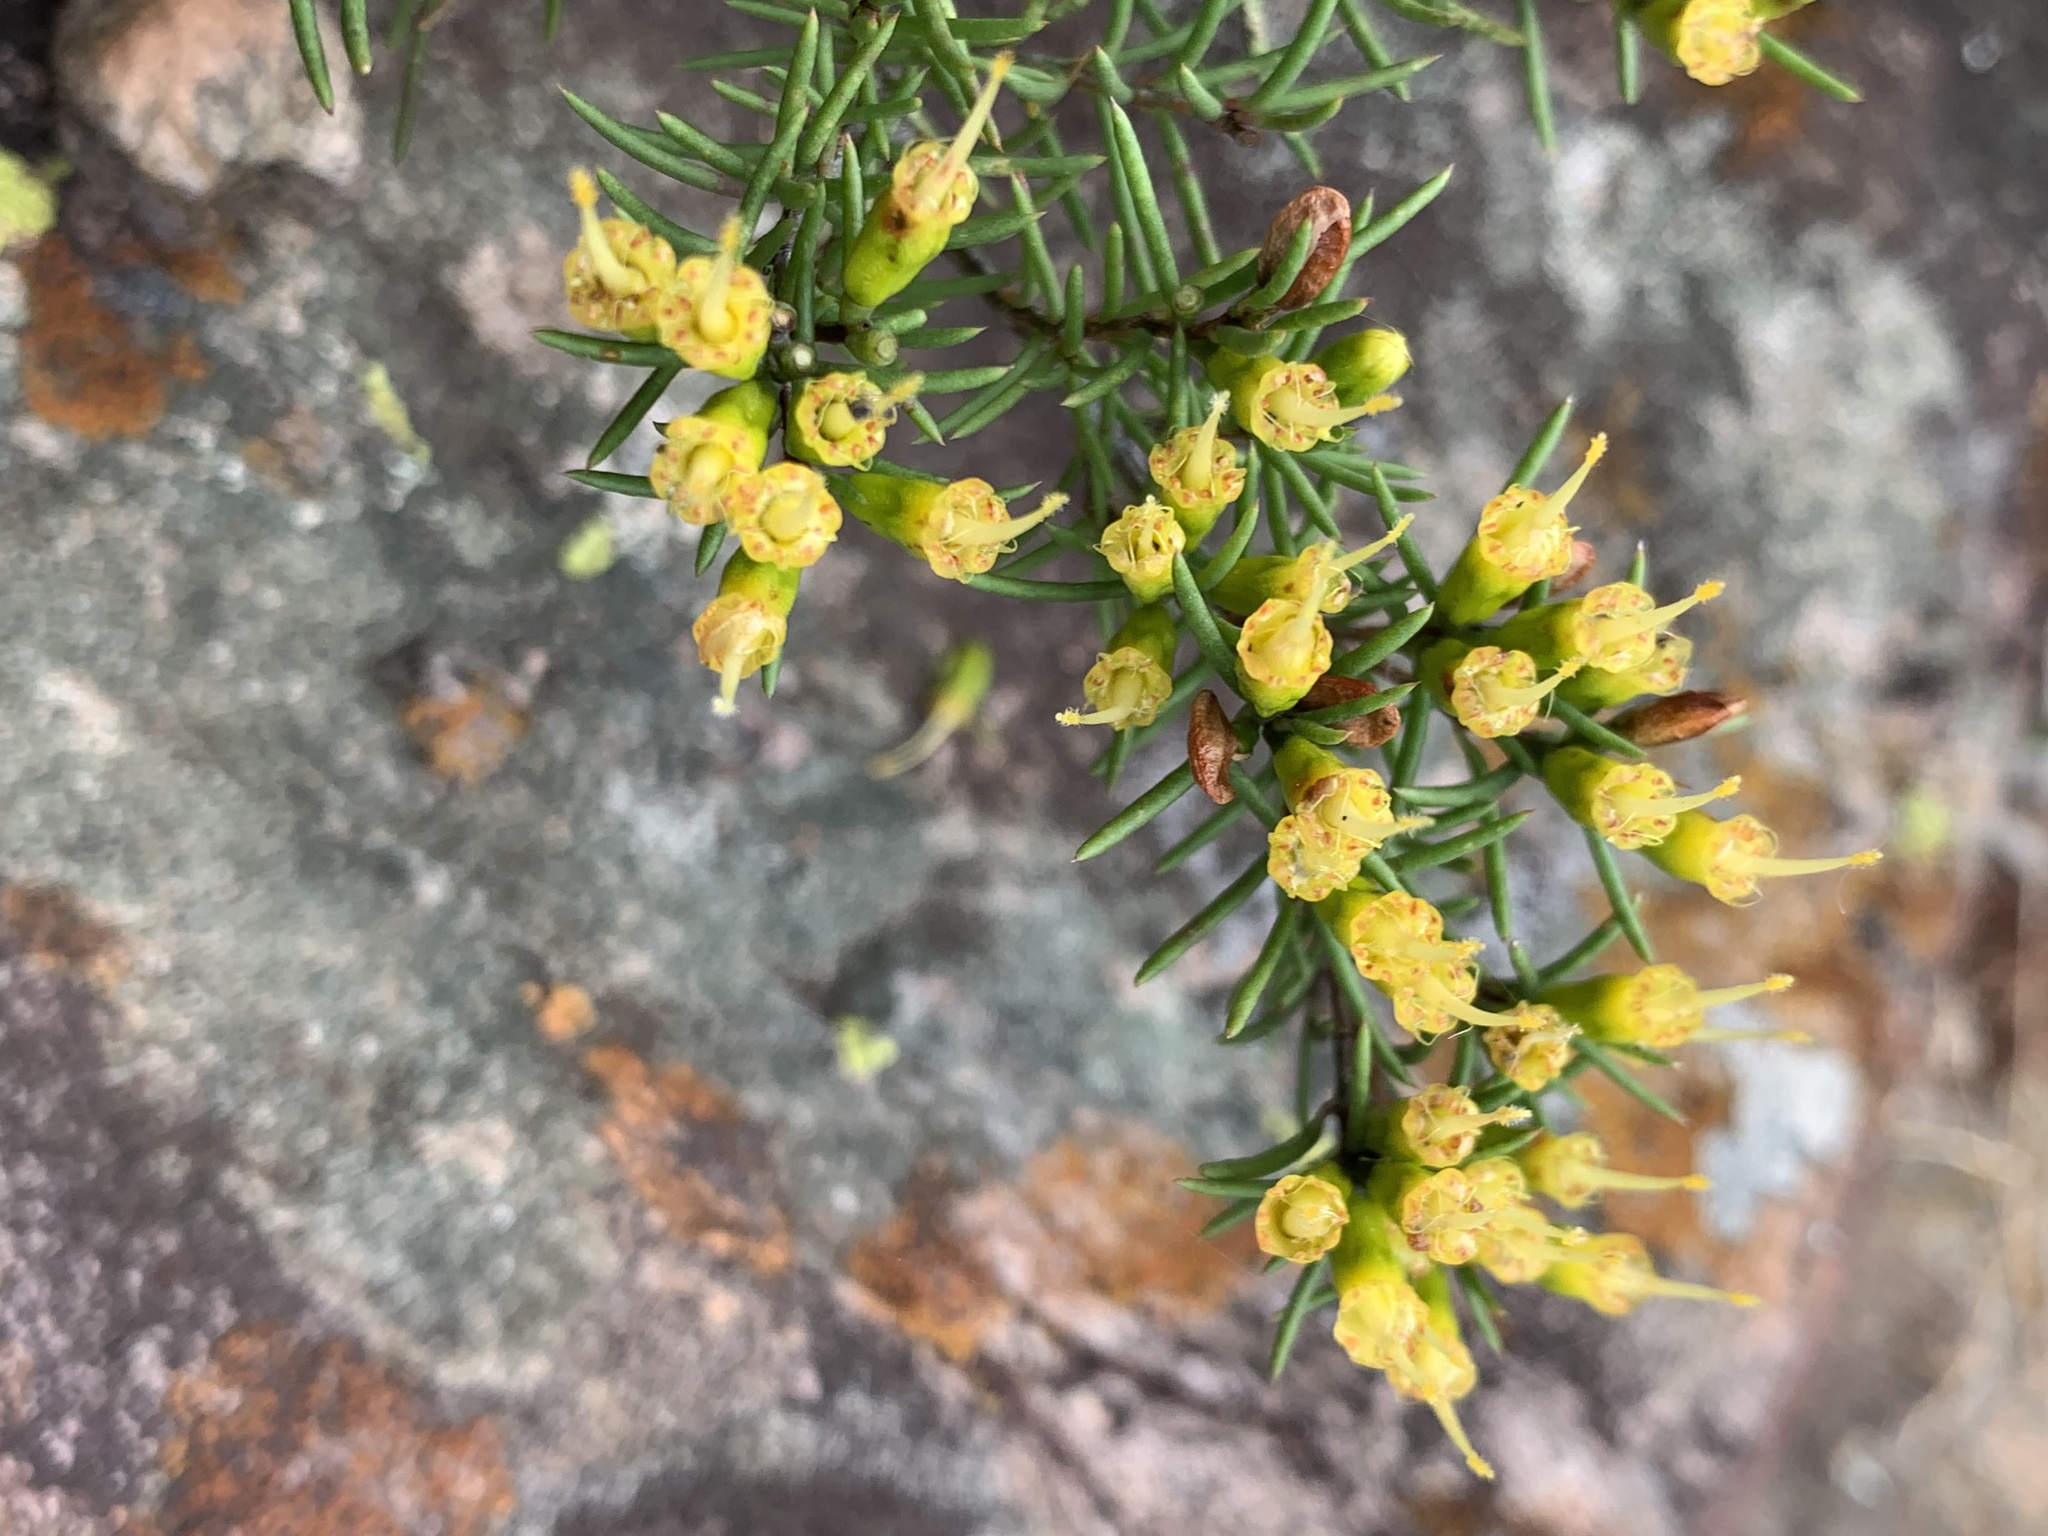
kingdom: Plantae
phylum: Tracheophyta
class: Magnoliopsida
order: Myrtales
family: Myrtaceae
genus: Homoranthus
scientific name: Homoranthus flavescens
